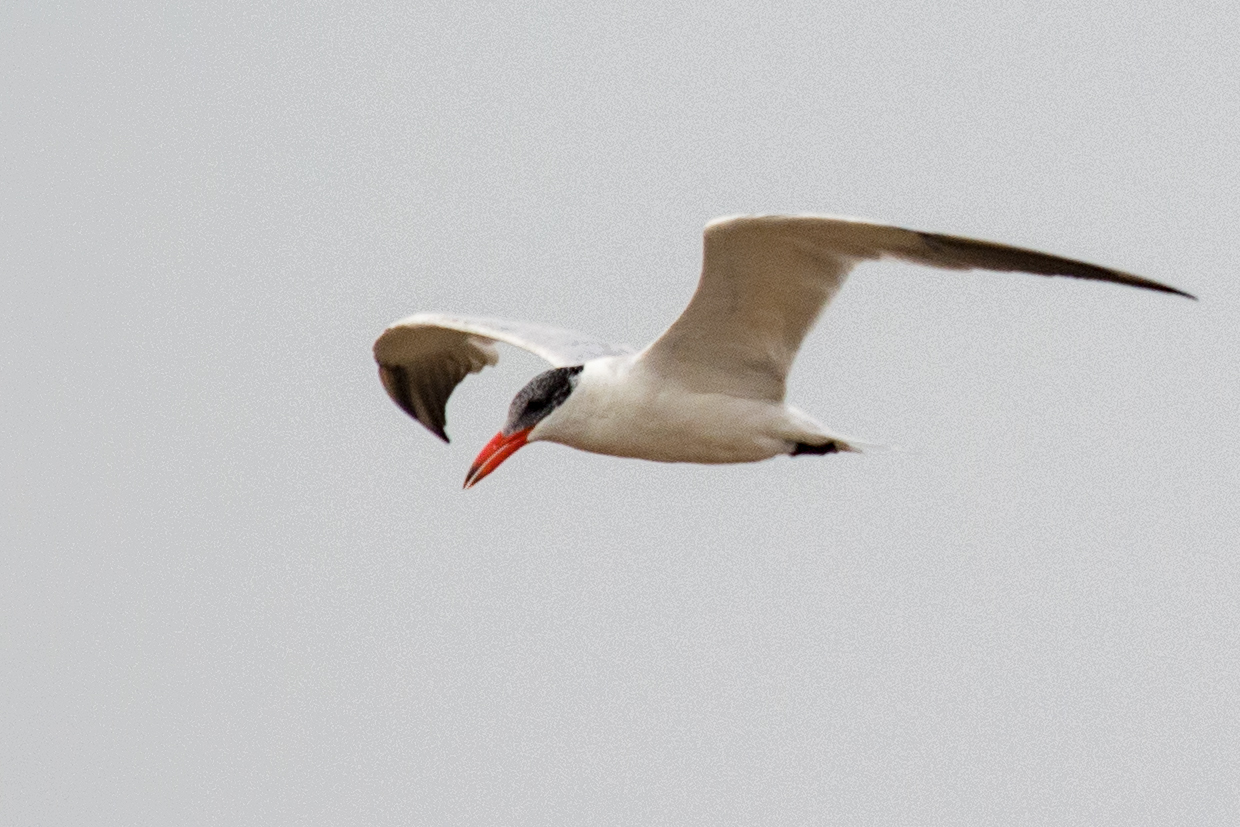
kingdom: Animalia
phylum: Chordata
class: Aves
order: Charadriiformes
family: Laridae
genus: Hydroprogne
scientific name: Hydroprogne caspia
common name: Caspian tern
